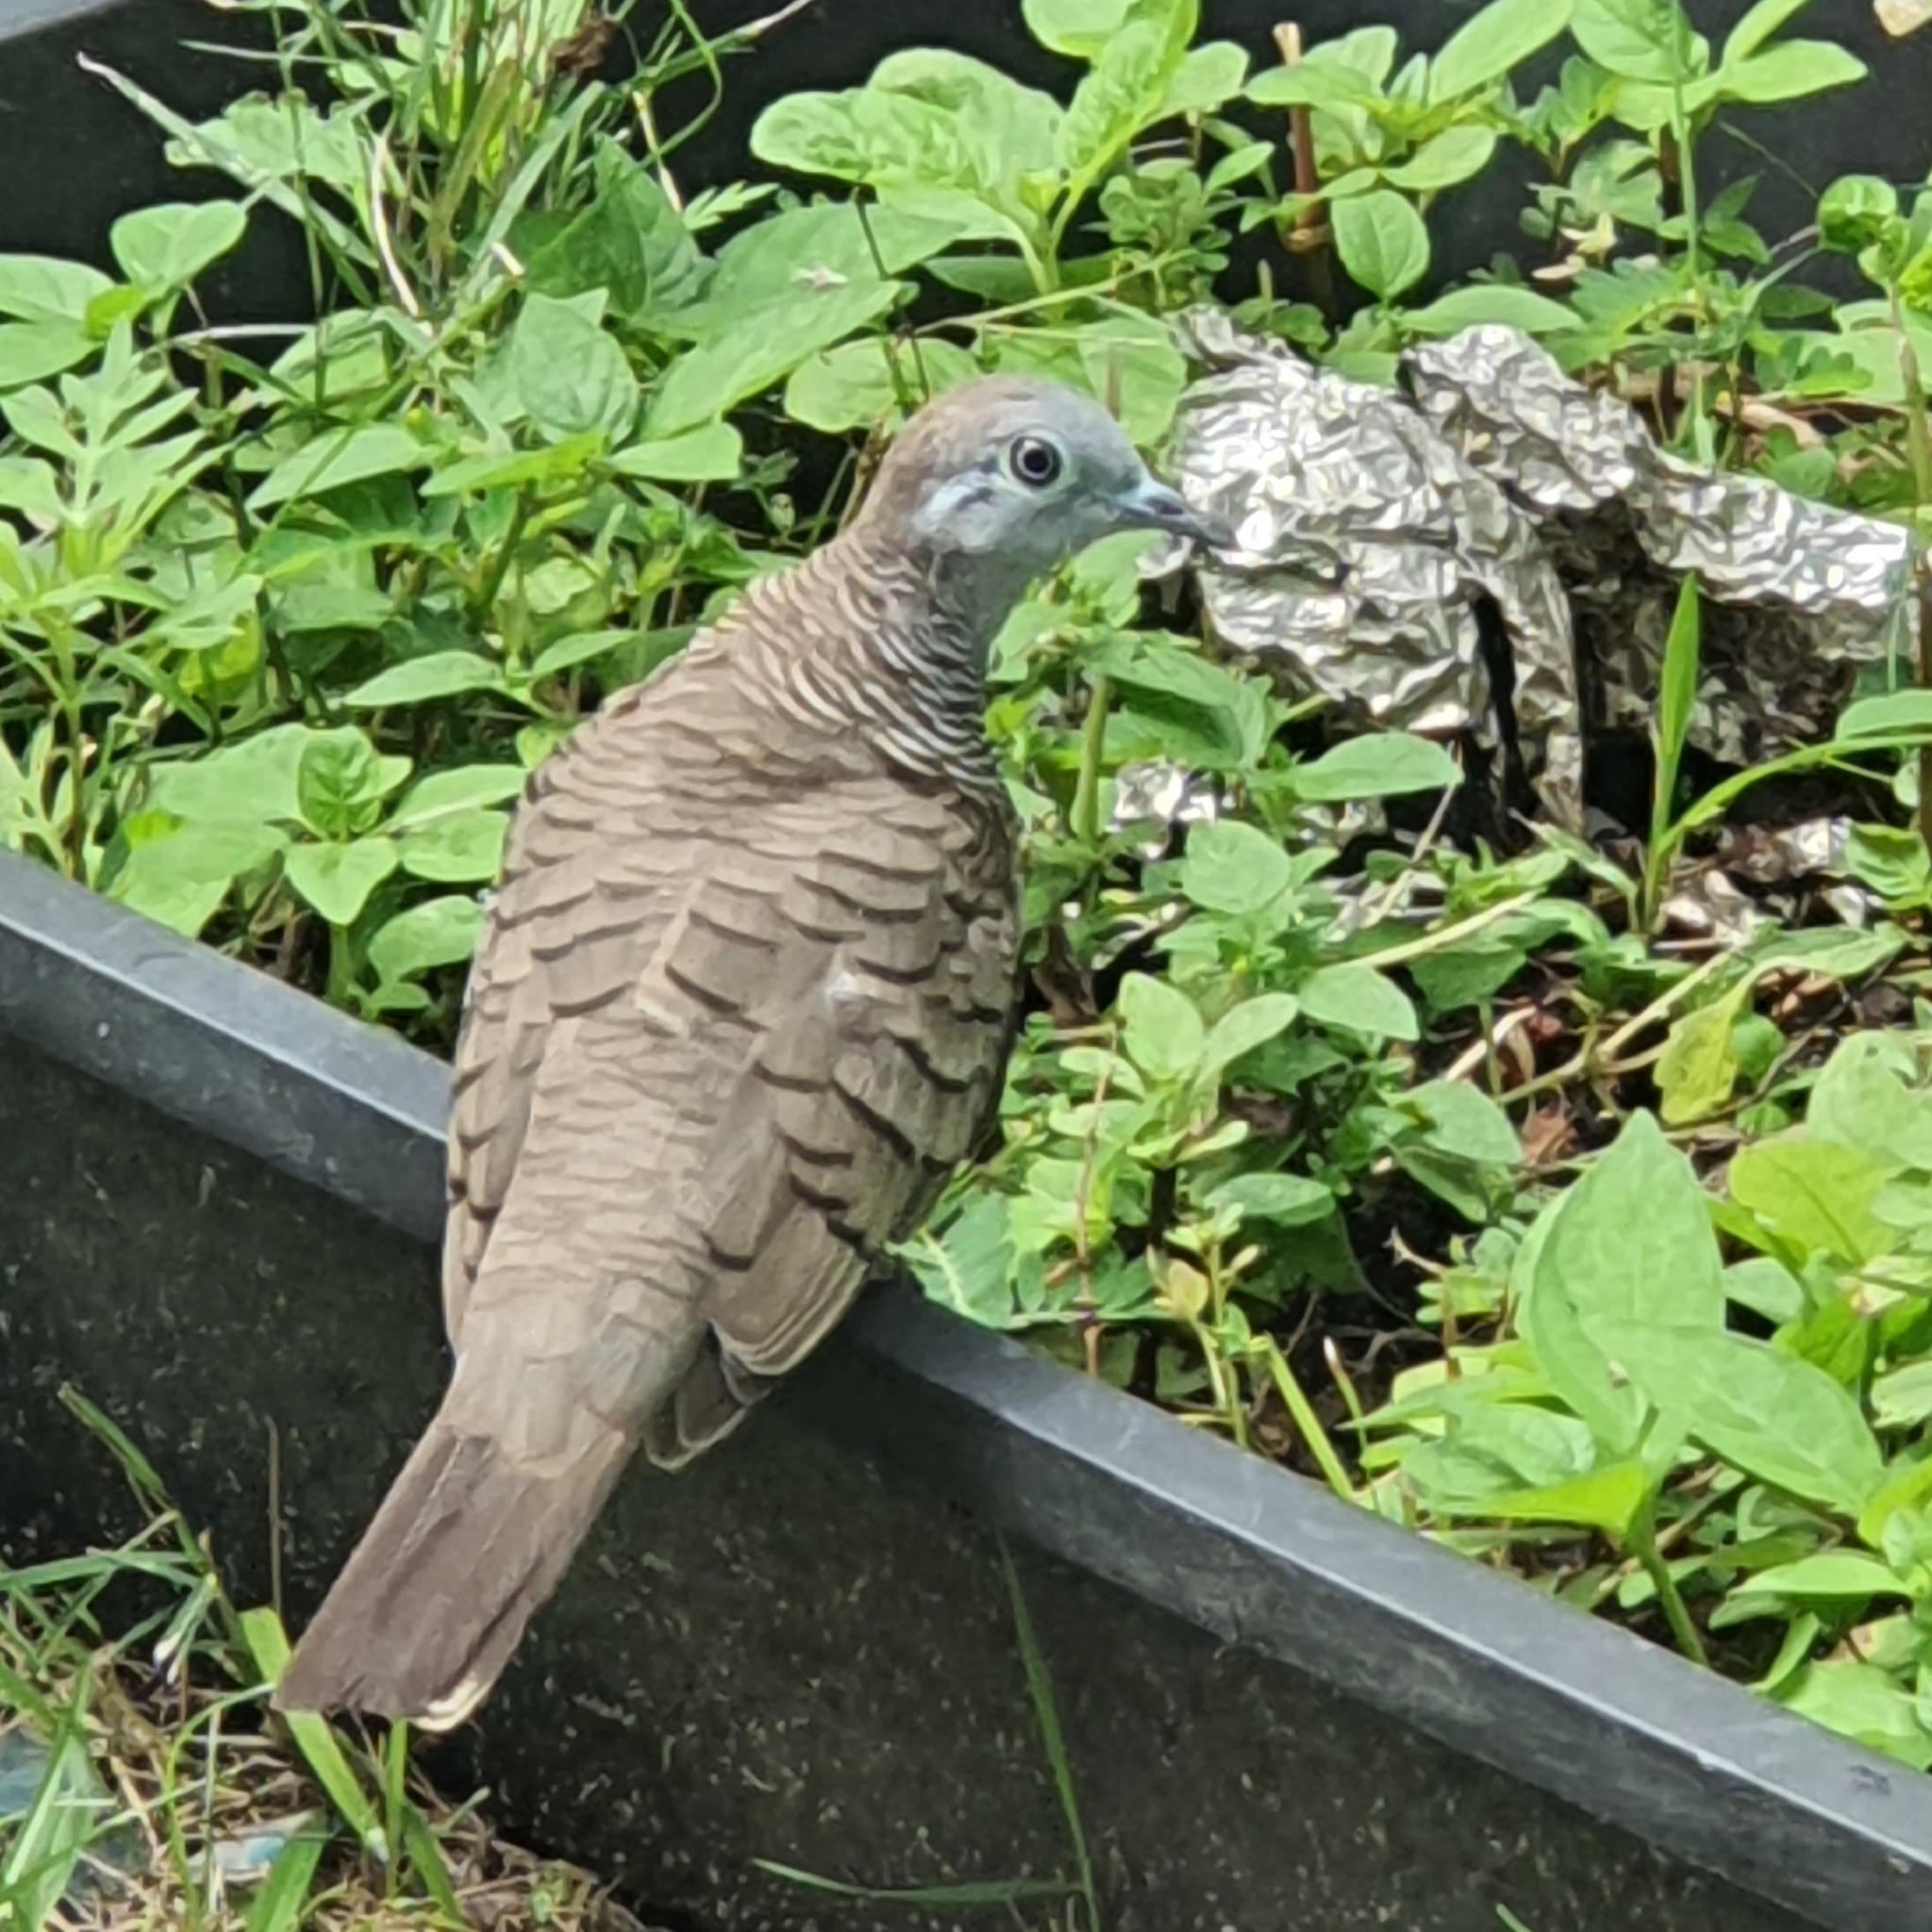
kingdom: Animalia
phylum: Chordata
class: Aves
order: Columbiformes
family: Columbidae
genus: Geopelia
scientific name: Geopelia striata
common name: Zebra dove
